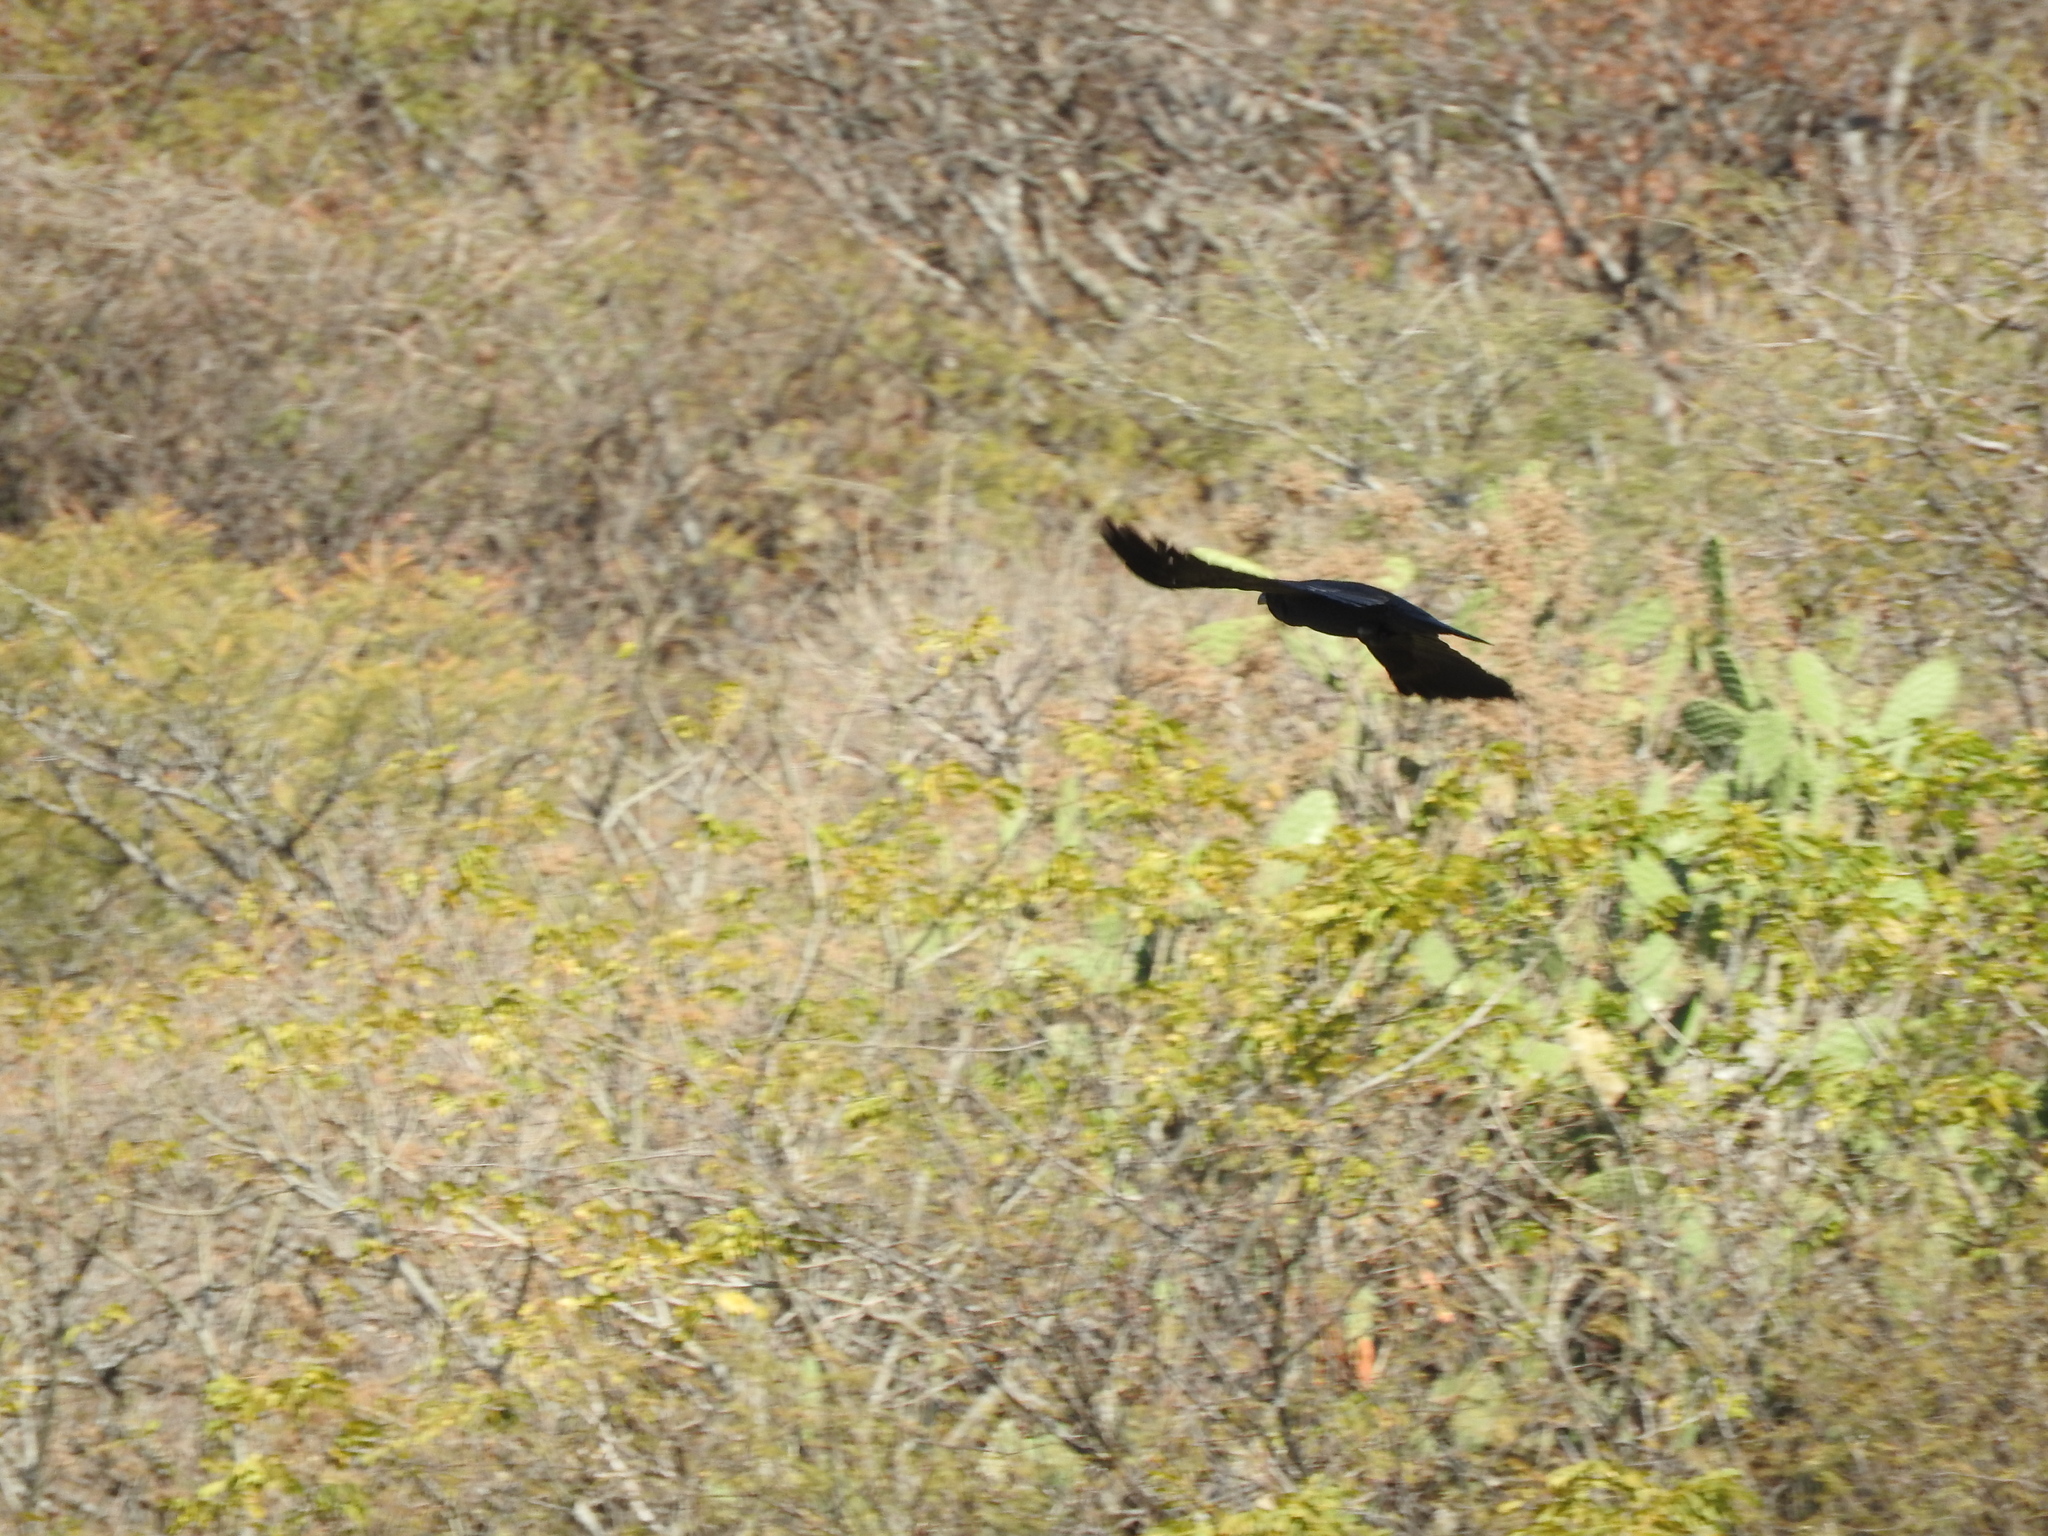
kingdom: Animalia
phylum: Chordata
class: Aves
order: Passeriformes
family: Corvidae
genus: Corvus
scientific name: Corvus corax
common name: Common raven
